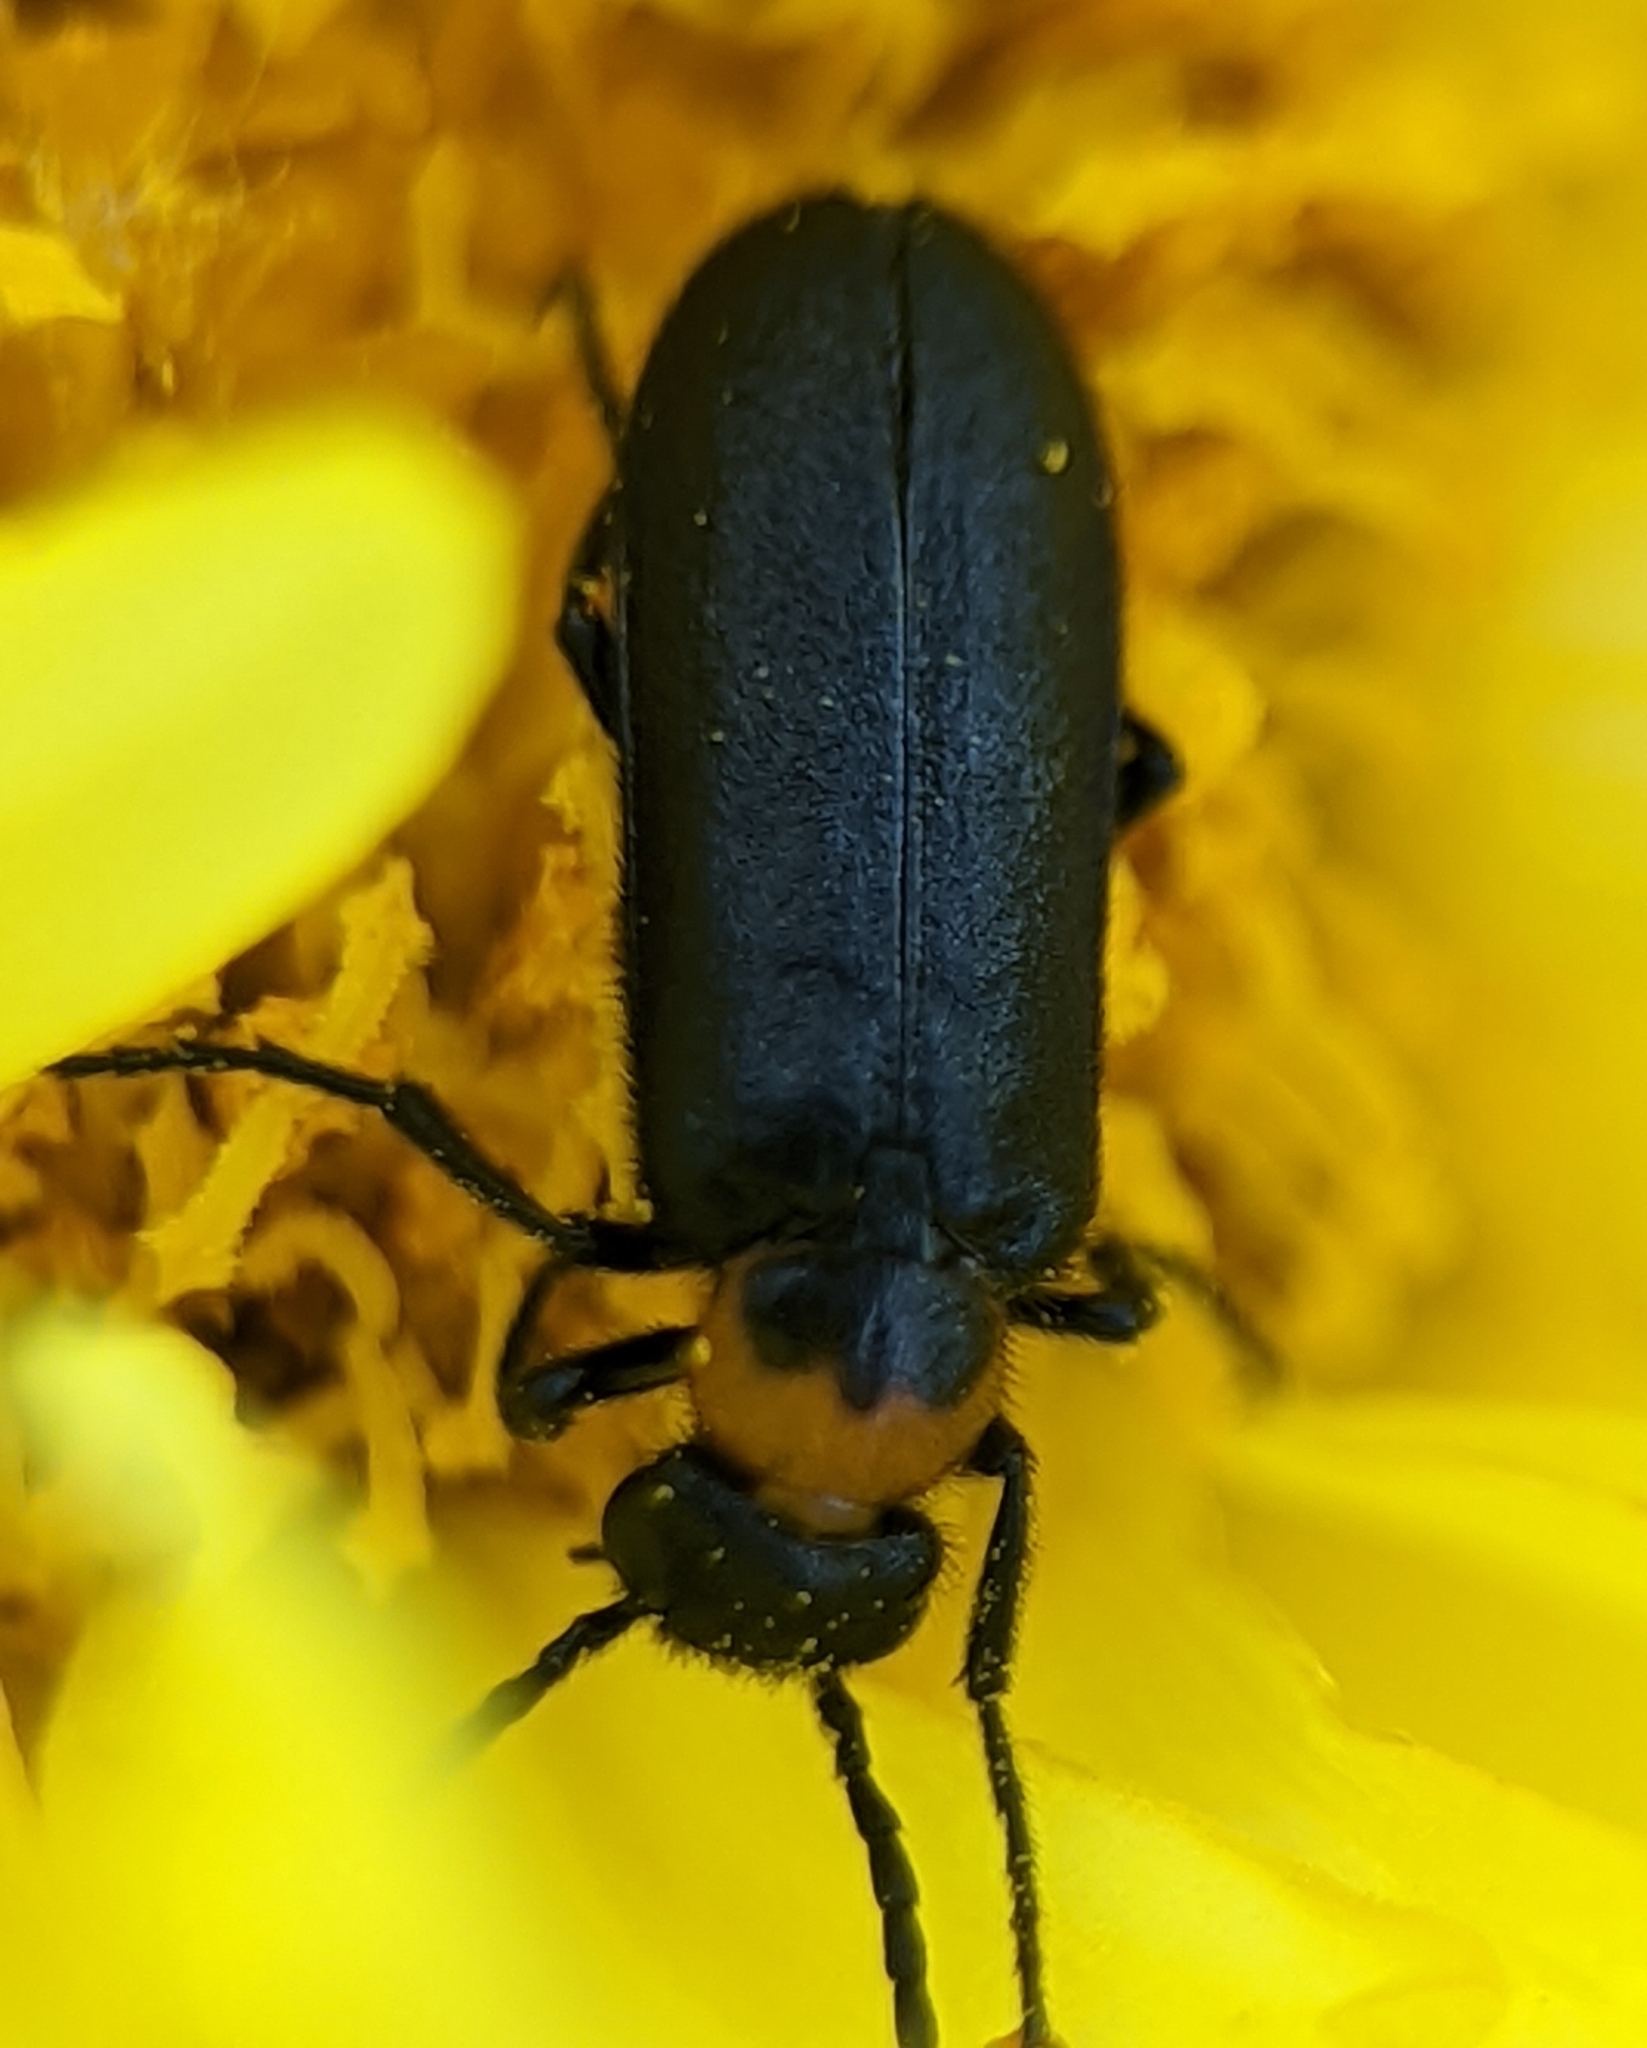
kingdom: Animalia
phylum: Arthropoda
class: Insecta
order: Coleoptera
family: Meloidae
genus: Nemognatha
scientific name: Nemognatha nemorensis
